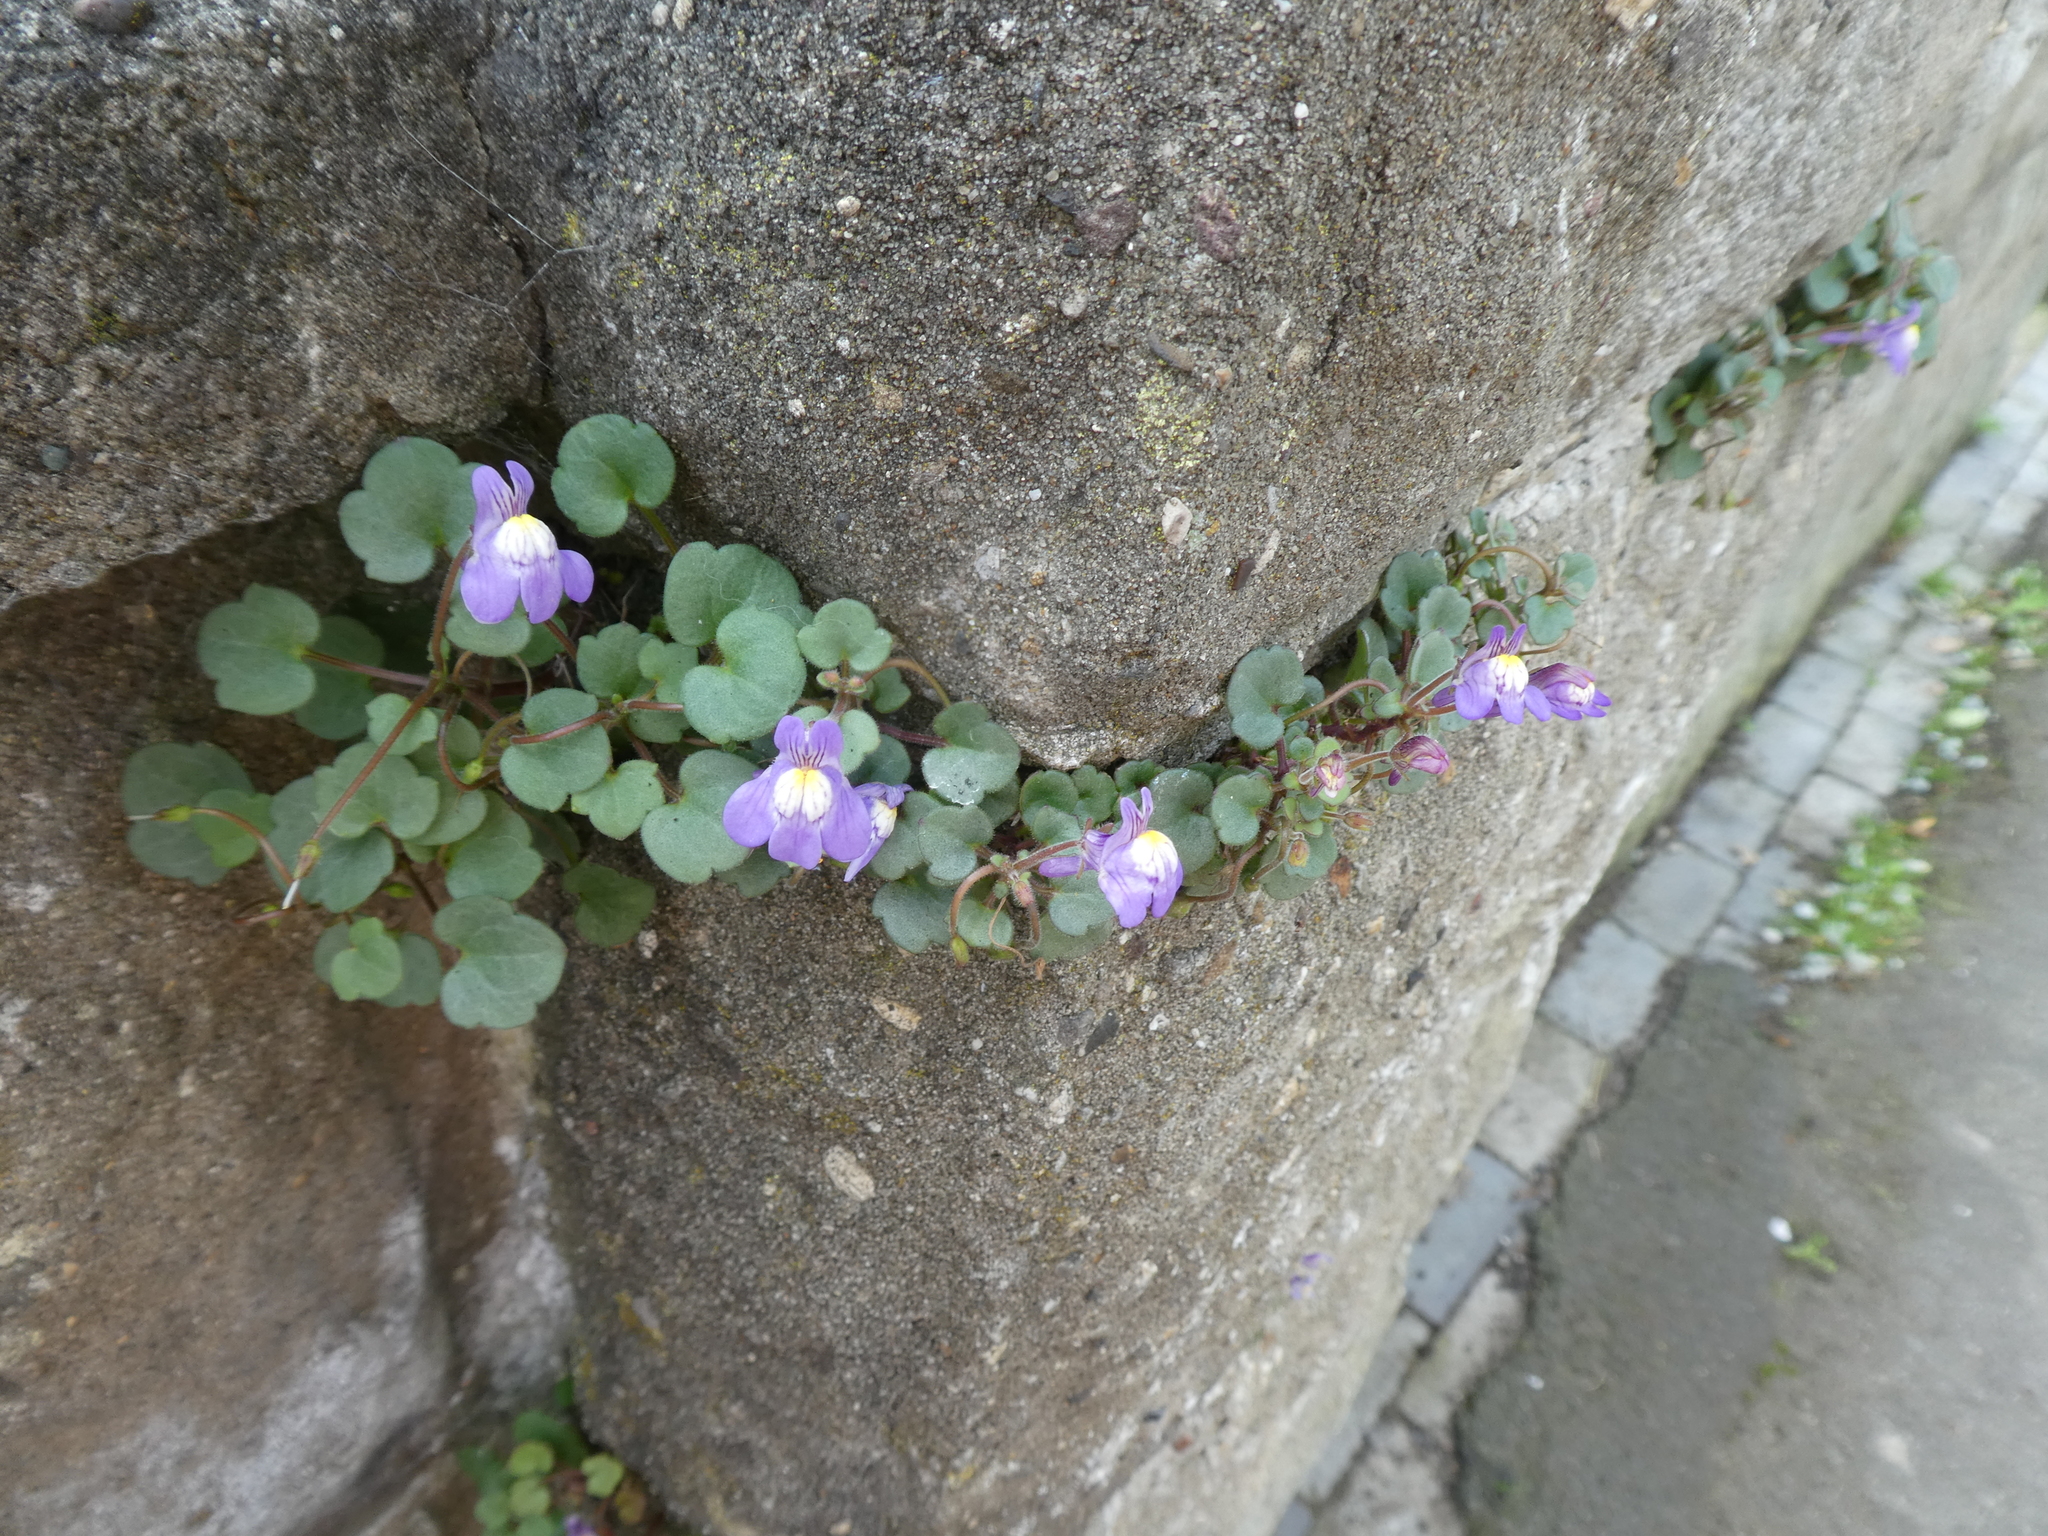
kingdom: Plantae
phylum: Tracheophyta
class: Magnoliopsida
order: Lamiales
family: Plantaginaceae
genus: Cymbalaria
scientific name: Cymbalaria pallida
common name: Italian toadflax
